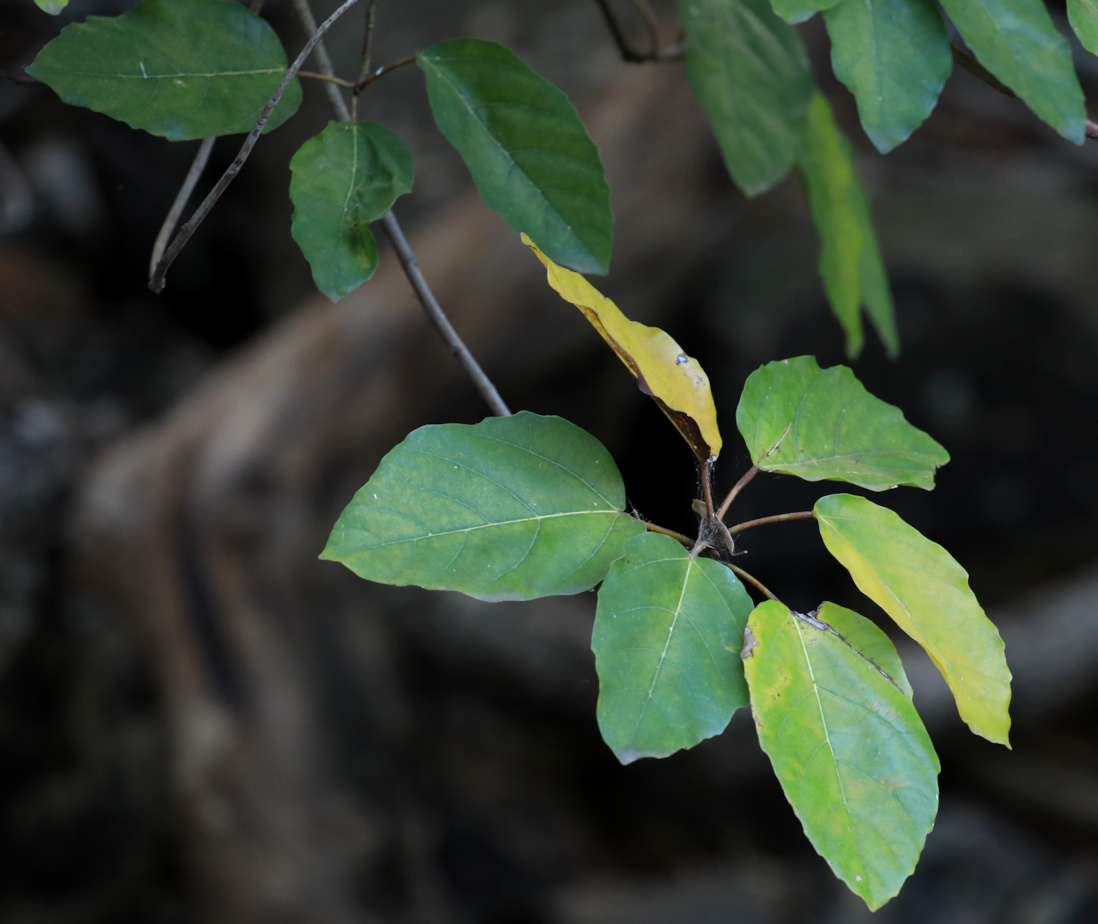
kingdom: Plantae
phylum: Tracheophyta
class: Magnoliopsida
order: Rosales
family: Moraceae
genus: Ficus
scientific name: Ficus sur
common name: Cape fig
